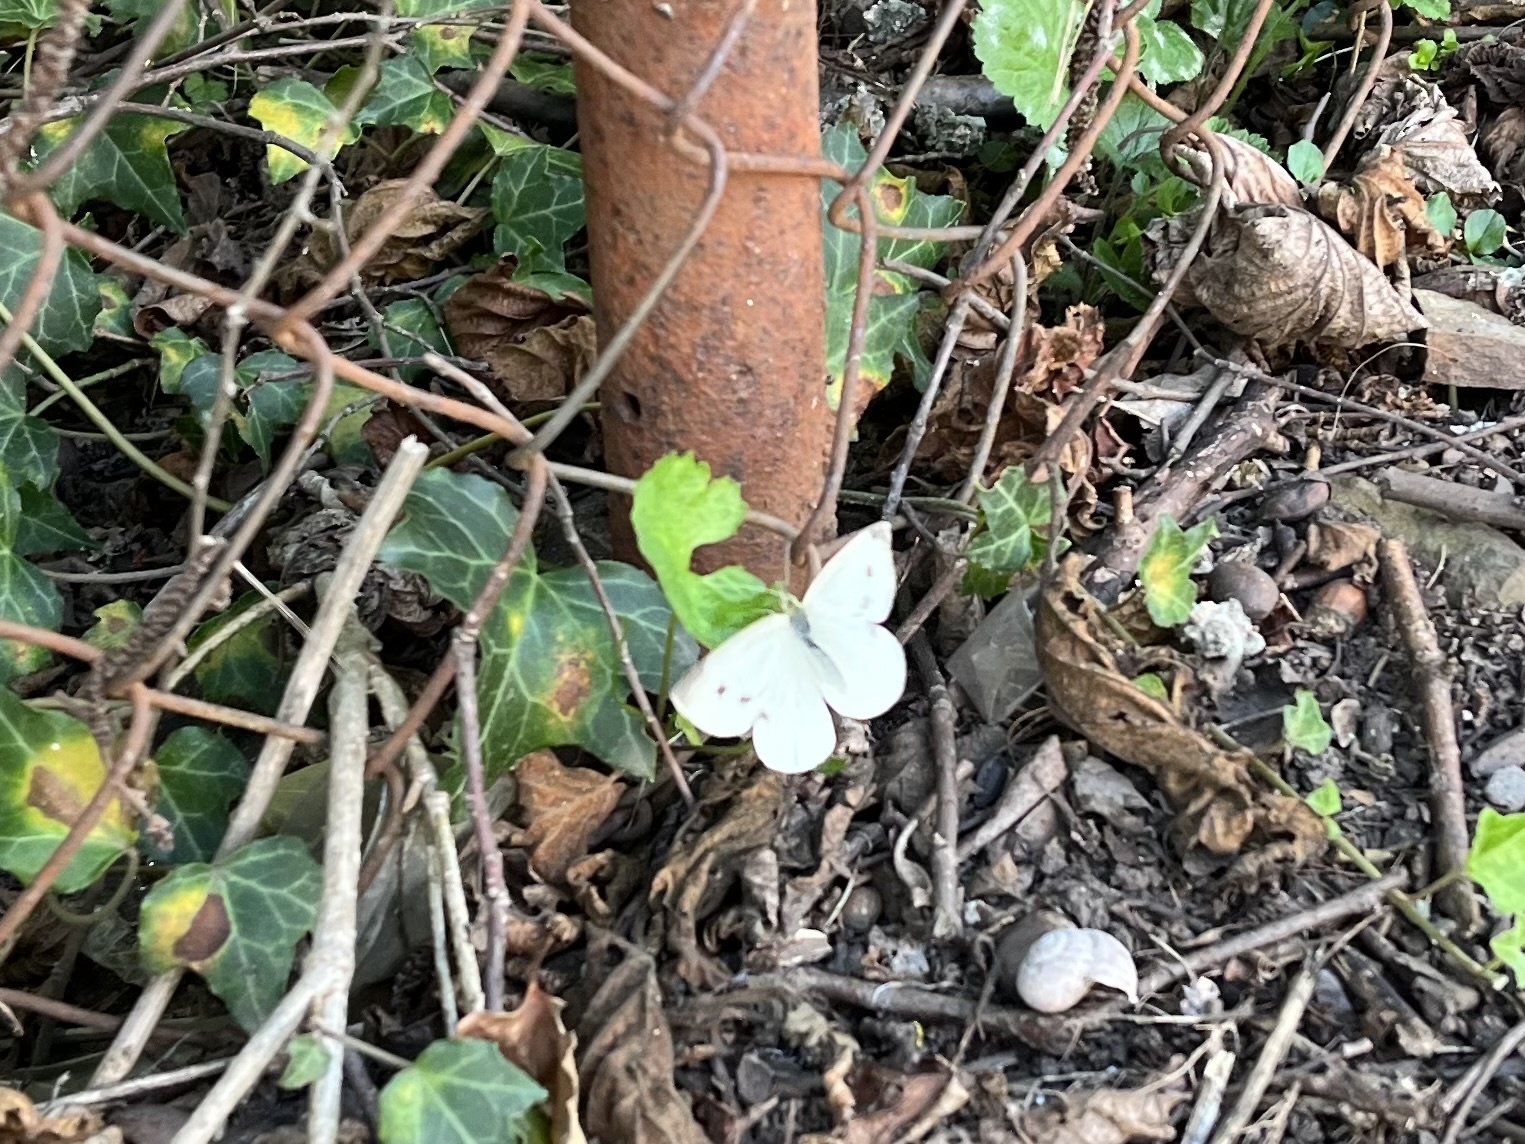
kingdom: Animalia
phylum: Arthropoda
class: Insecta
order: Lepidoptera
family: Pieridae
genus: Pieris
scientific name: Pieris rapae
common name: Small white
